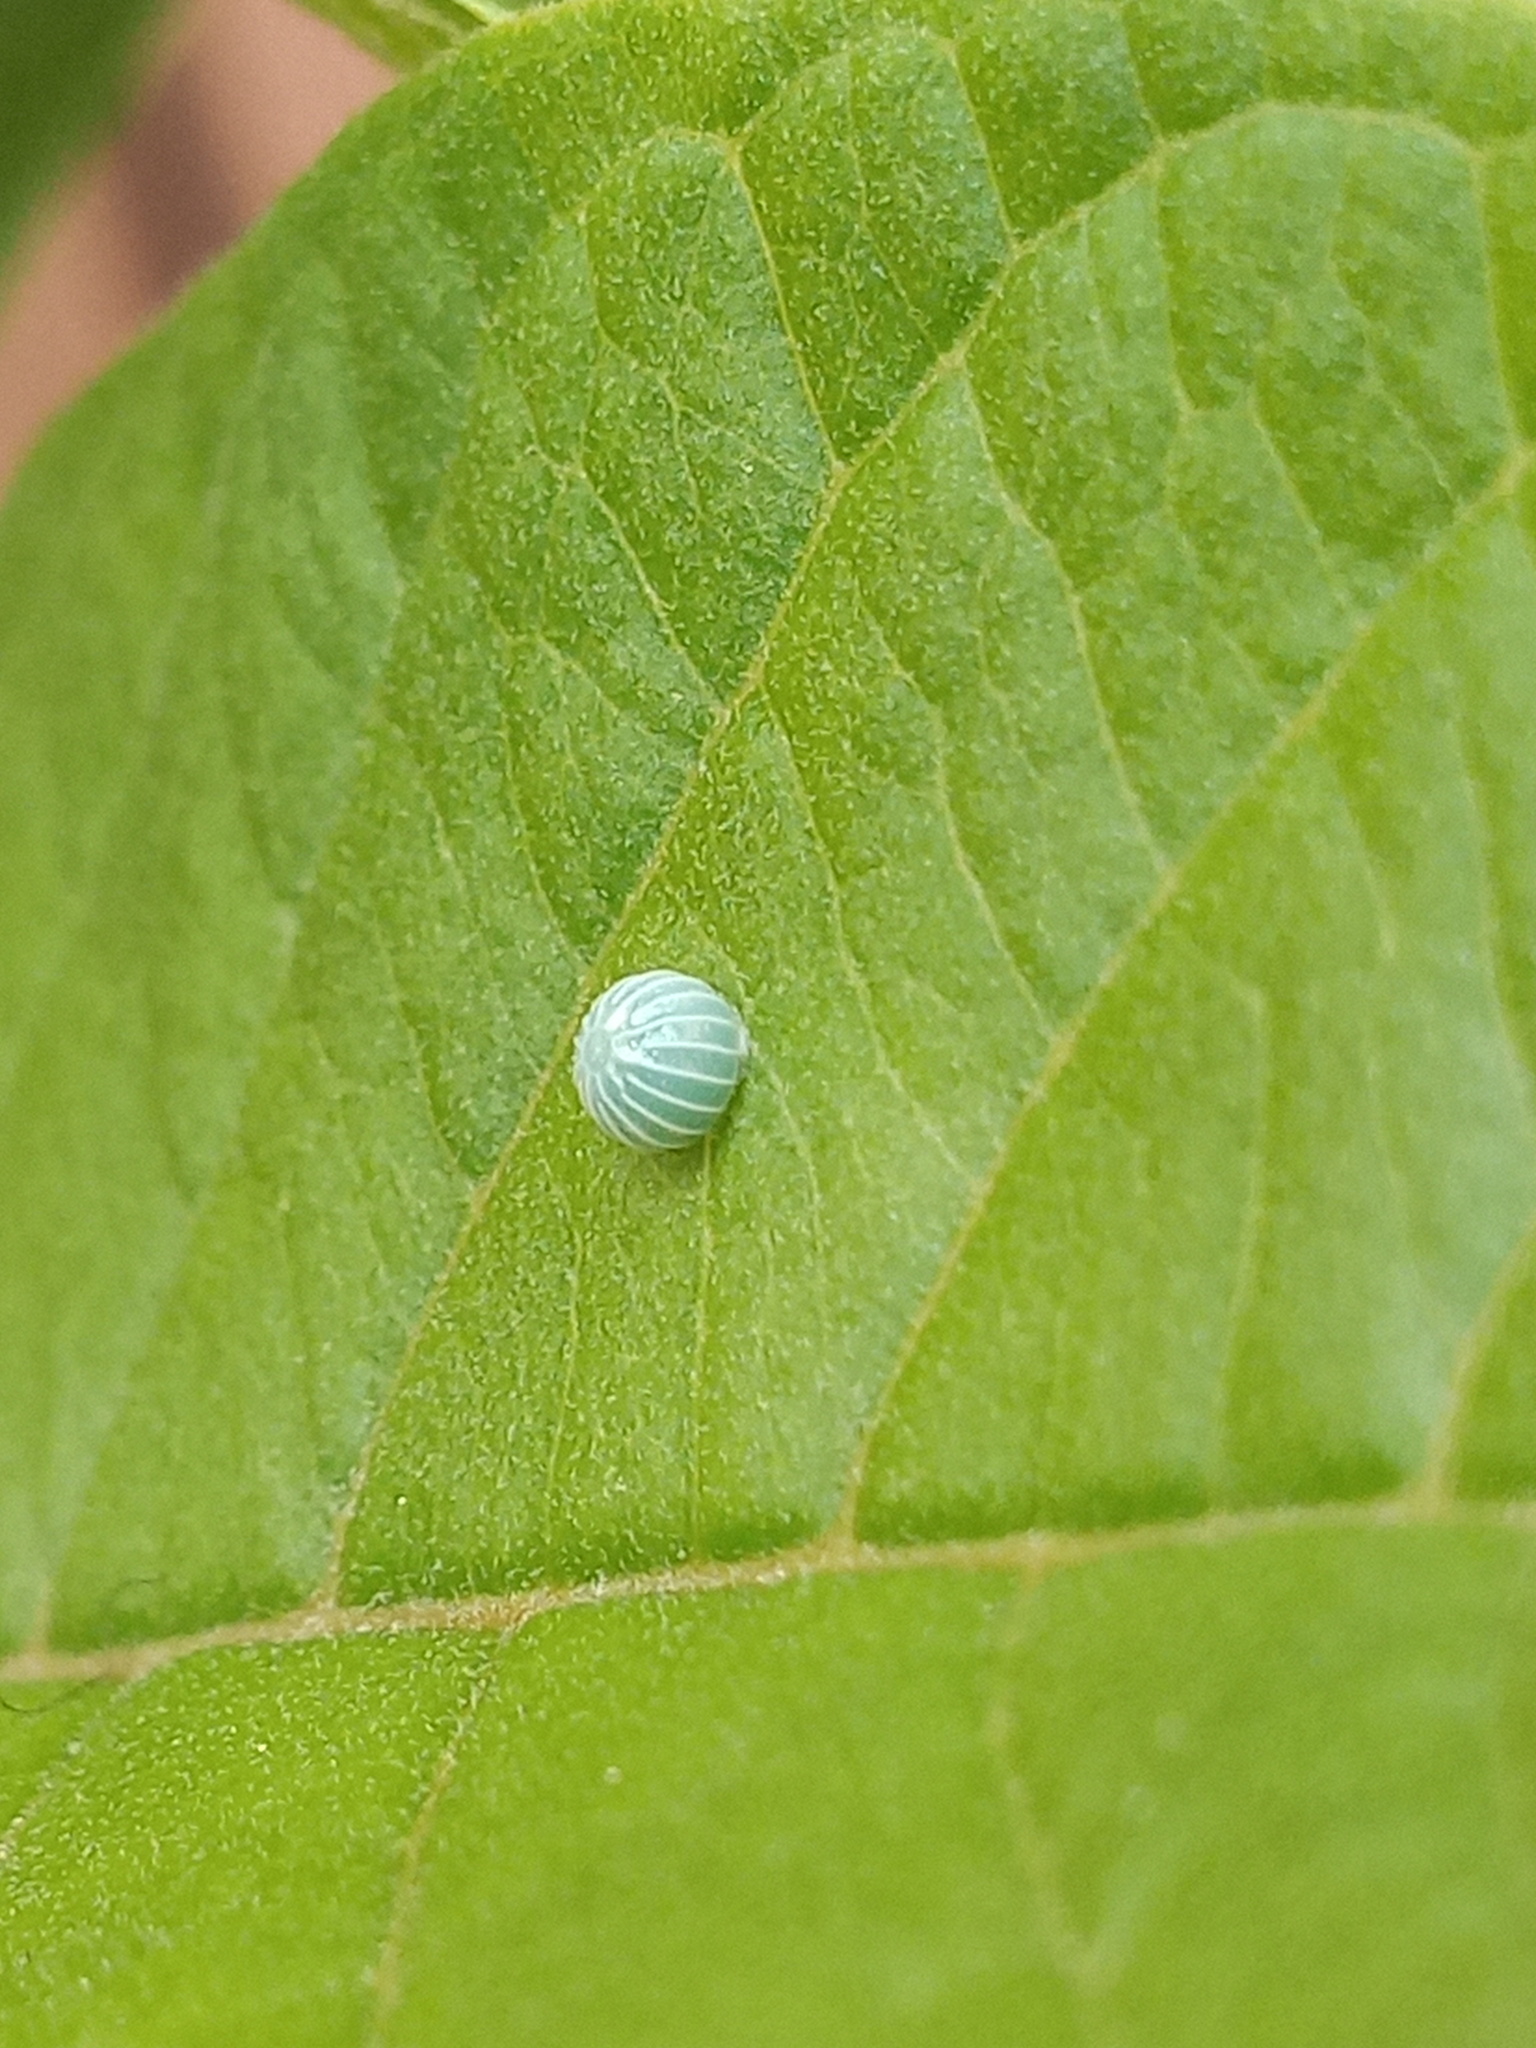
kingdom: Animalia
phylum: Arthropoda
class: Insecta
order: Lepidoptera
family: Hesperiidae
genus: Phocides
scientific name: Phocides lilea
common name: Guava skipper
